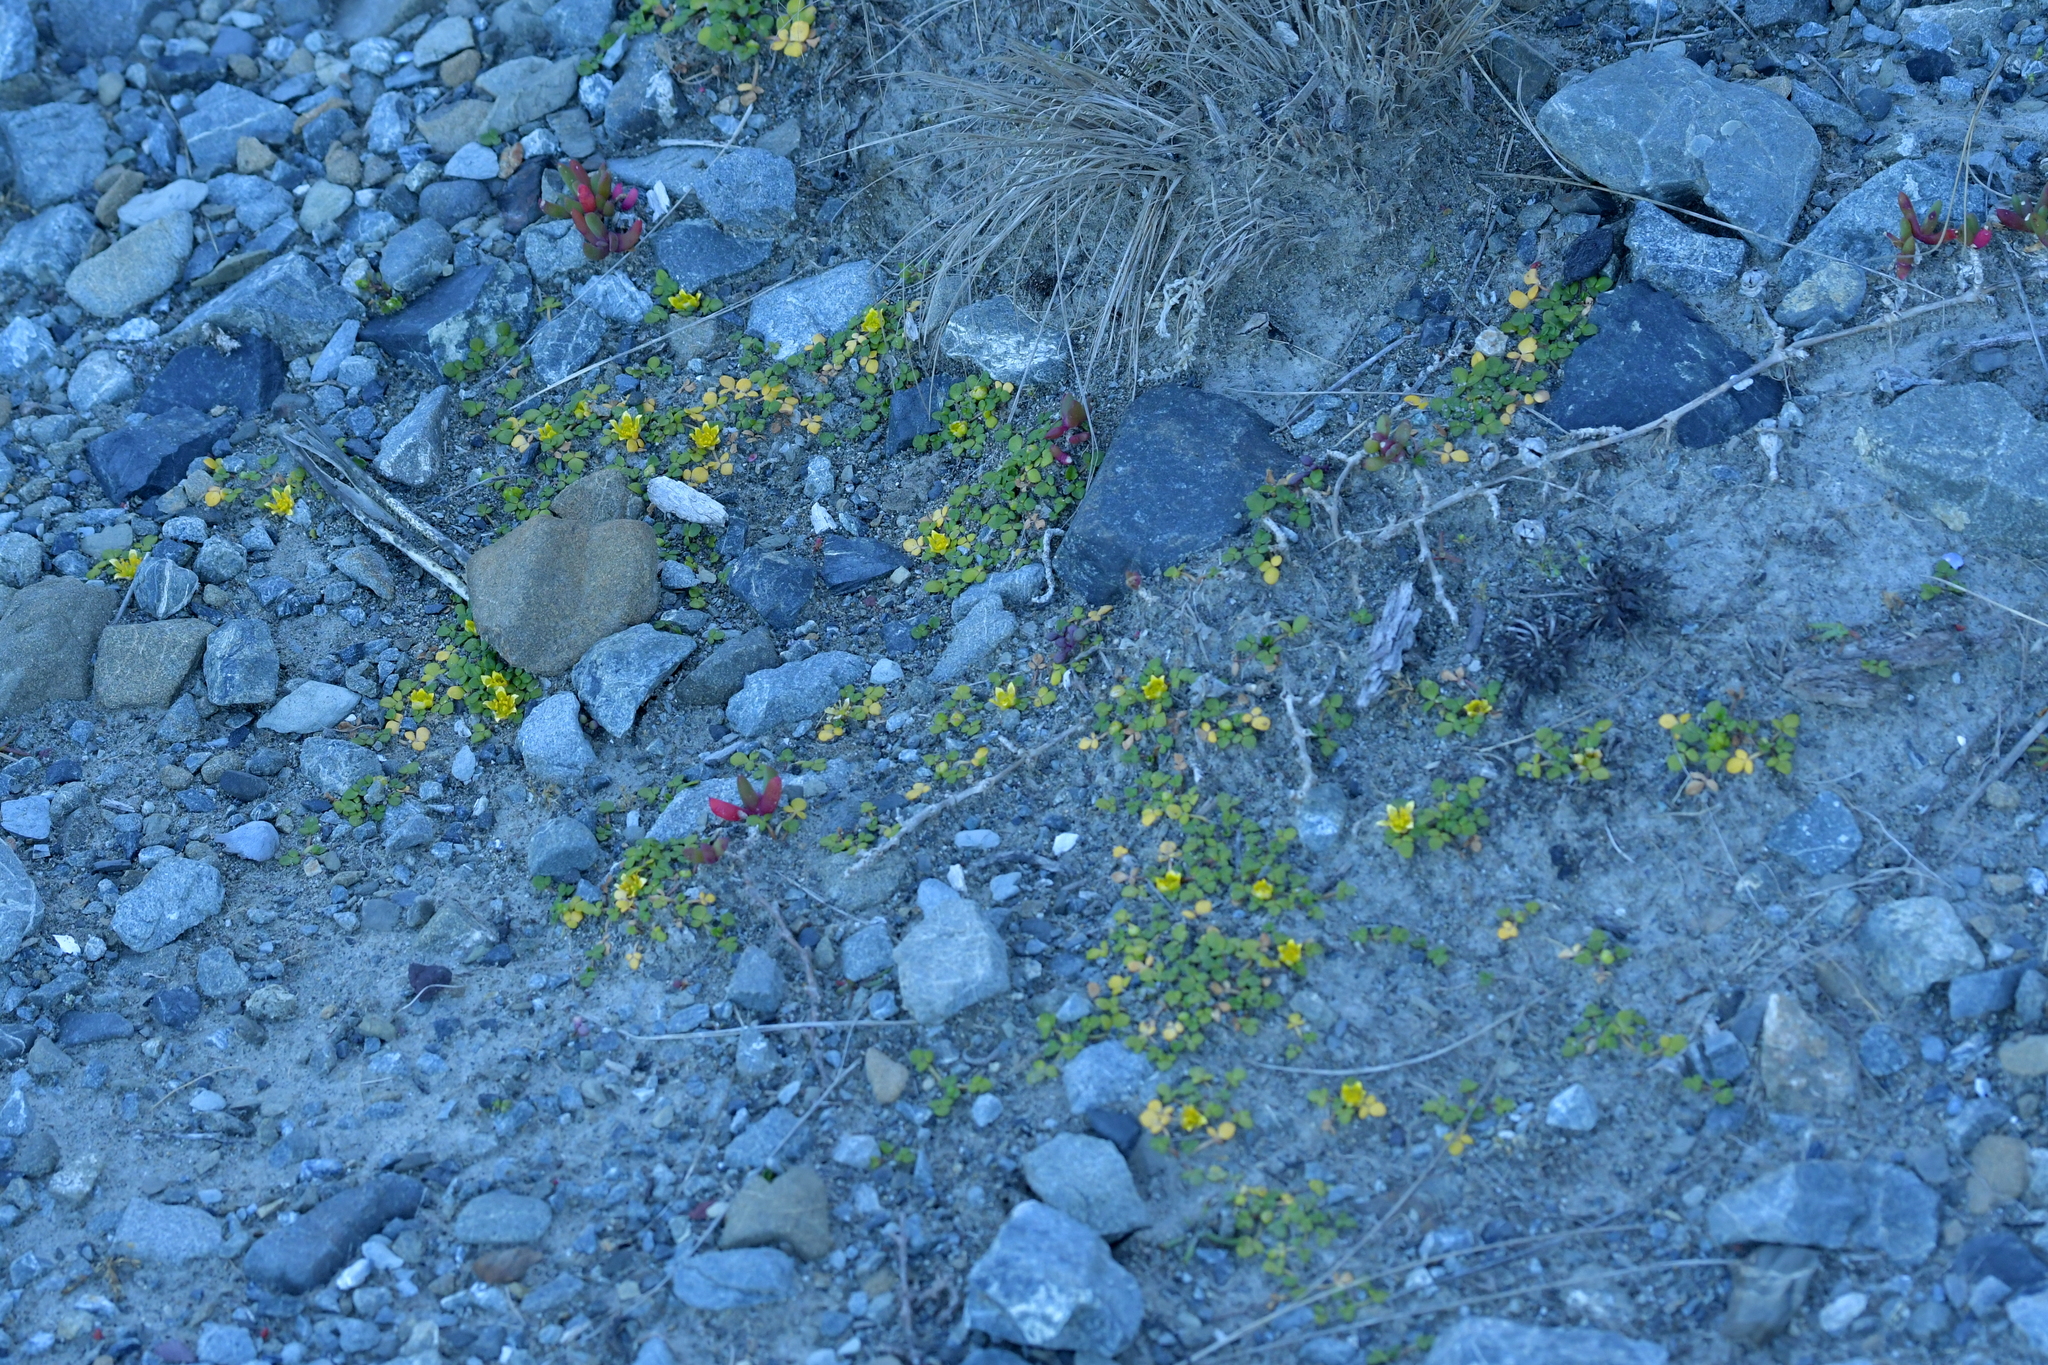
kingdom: Plantae
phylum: Tracheophyta
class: Magnoliopsida
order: Ranunculales
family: Ranunculaceae
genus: Ranunculus
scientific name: Ranunculus acaulis
